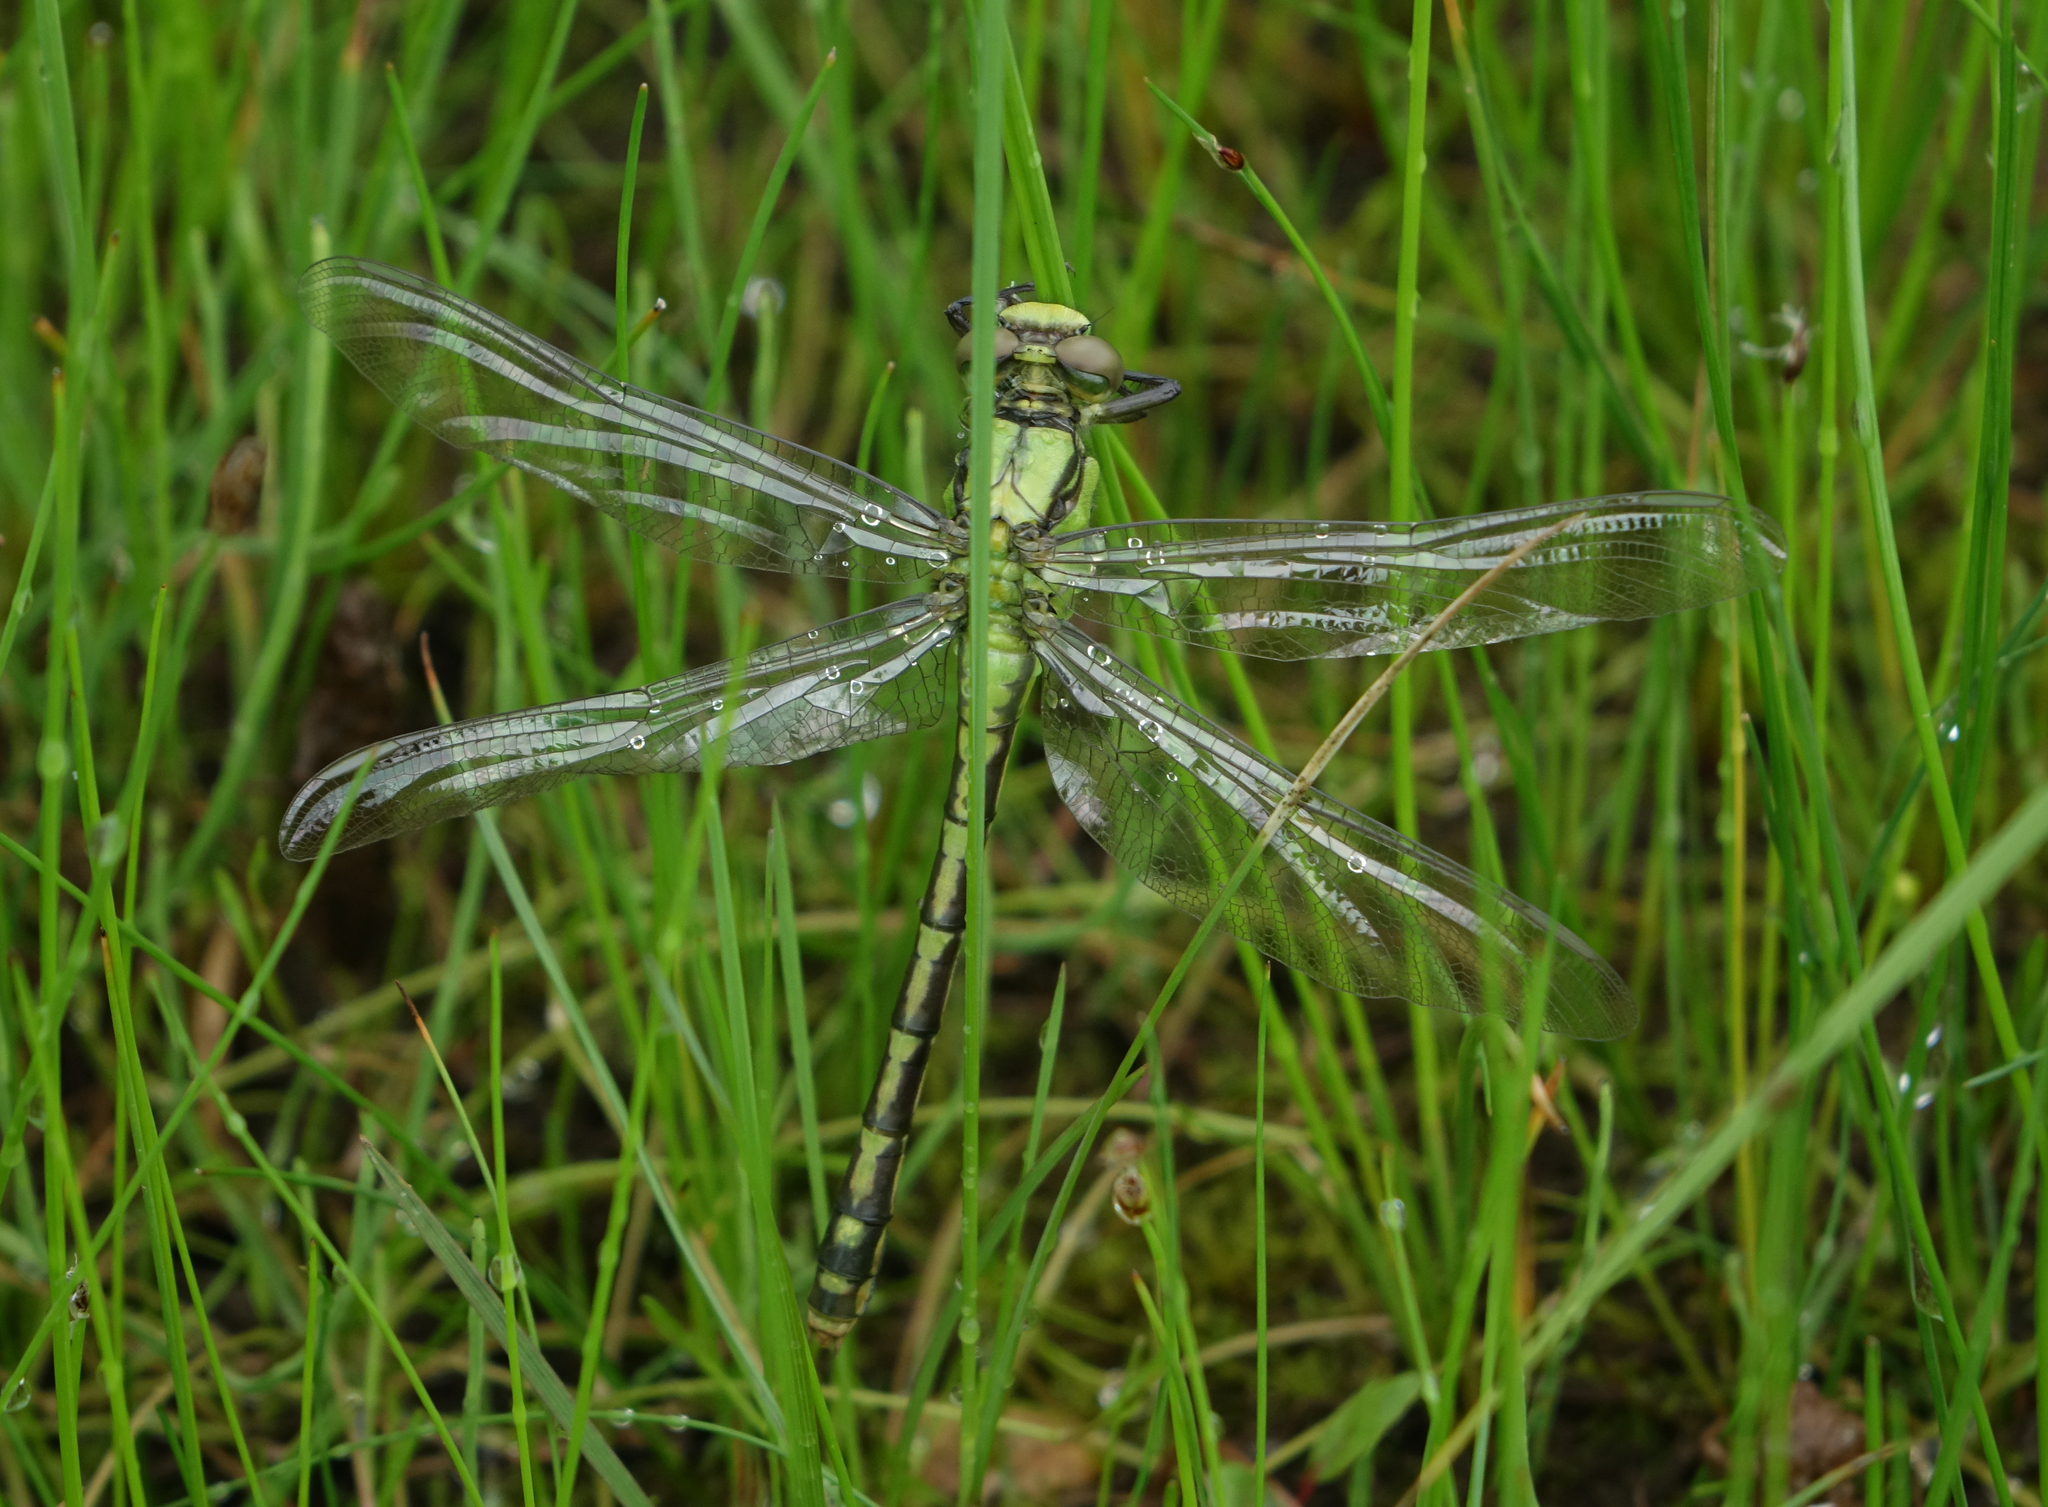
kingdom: Animalia
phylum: Arthropoda
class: Insecta
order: Odonata
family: Gomphidae
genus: Ophiogomphus
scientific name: Ophiogomphus obscurus
